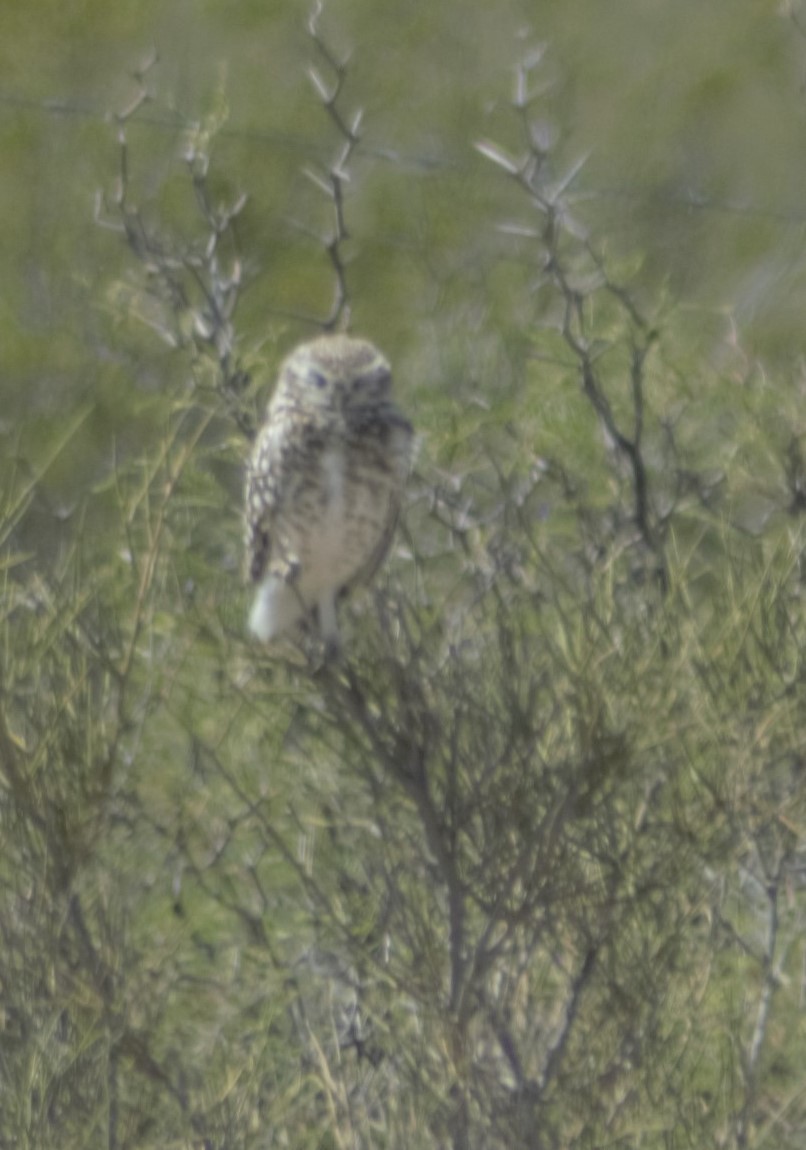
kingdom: Animalia
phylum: Chordata
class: Aves
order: Strigiformes
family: Strigidae
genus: Athene
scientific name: Athene cunicularia
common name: Burrowing owl
